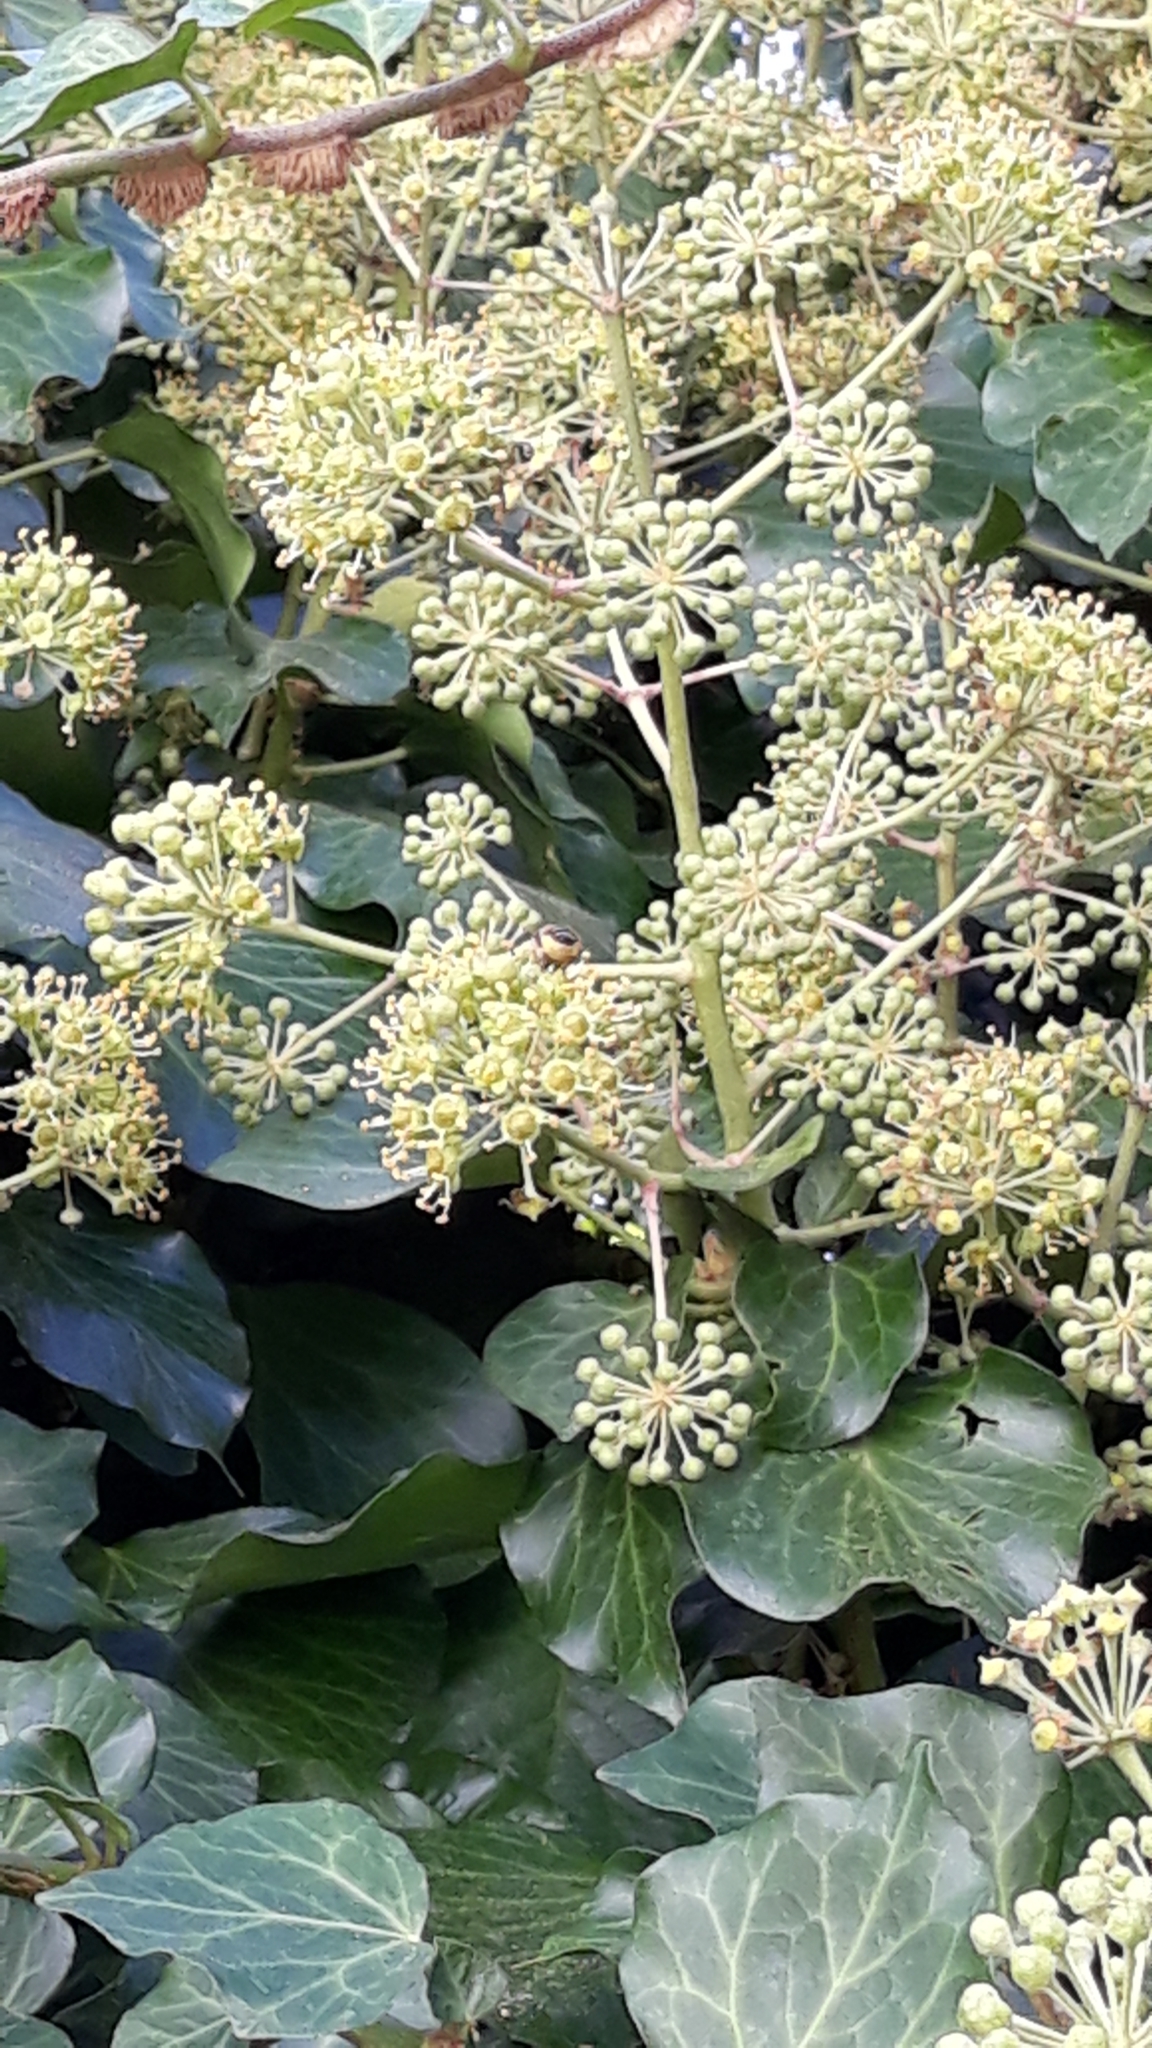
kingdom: Animalia
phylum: Arthropoda
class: Insecta
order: Hymenoptera
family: Apidae
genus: Apis
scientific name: Apis mellifera
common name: Honey bee
